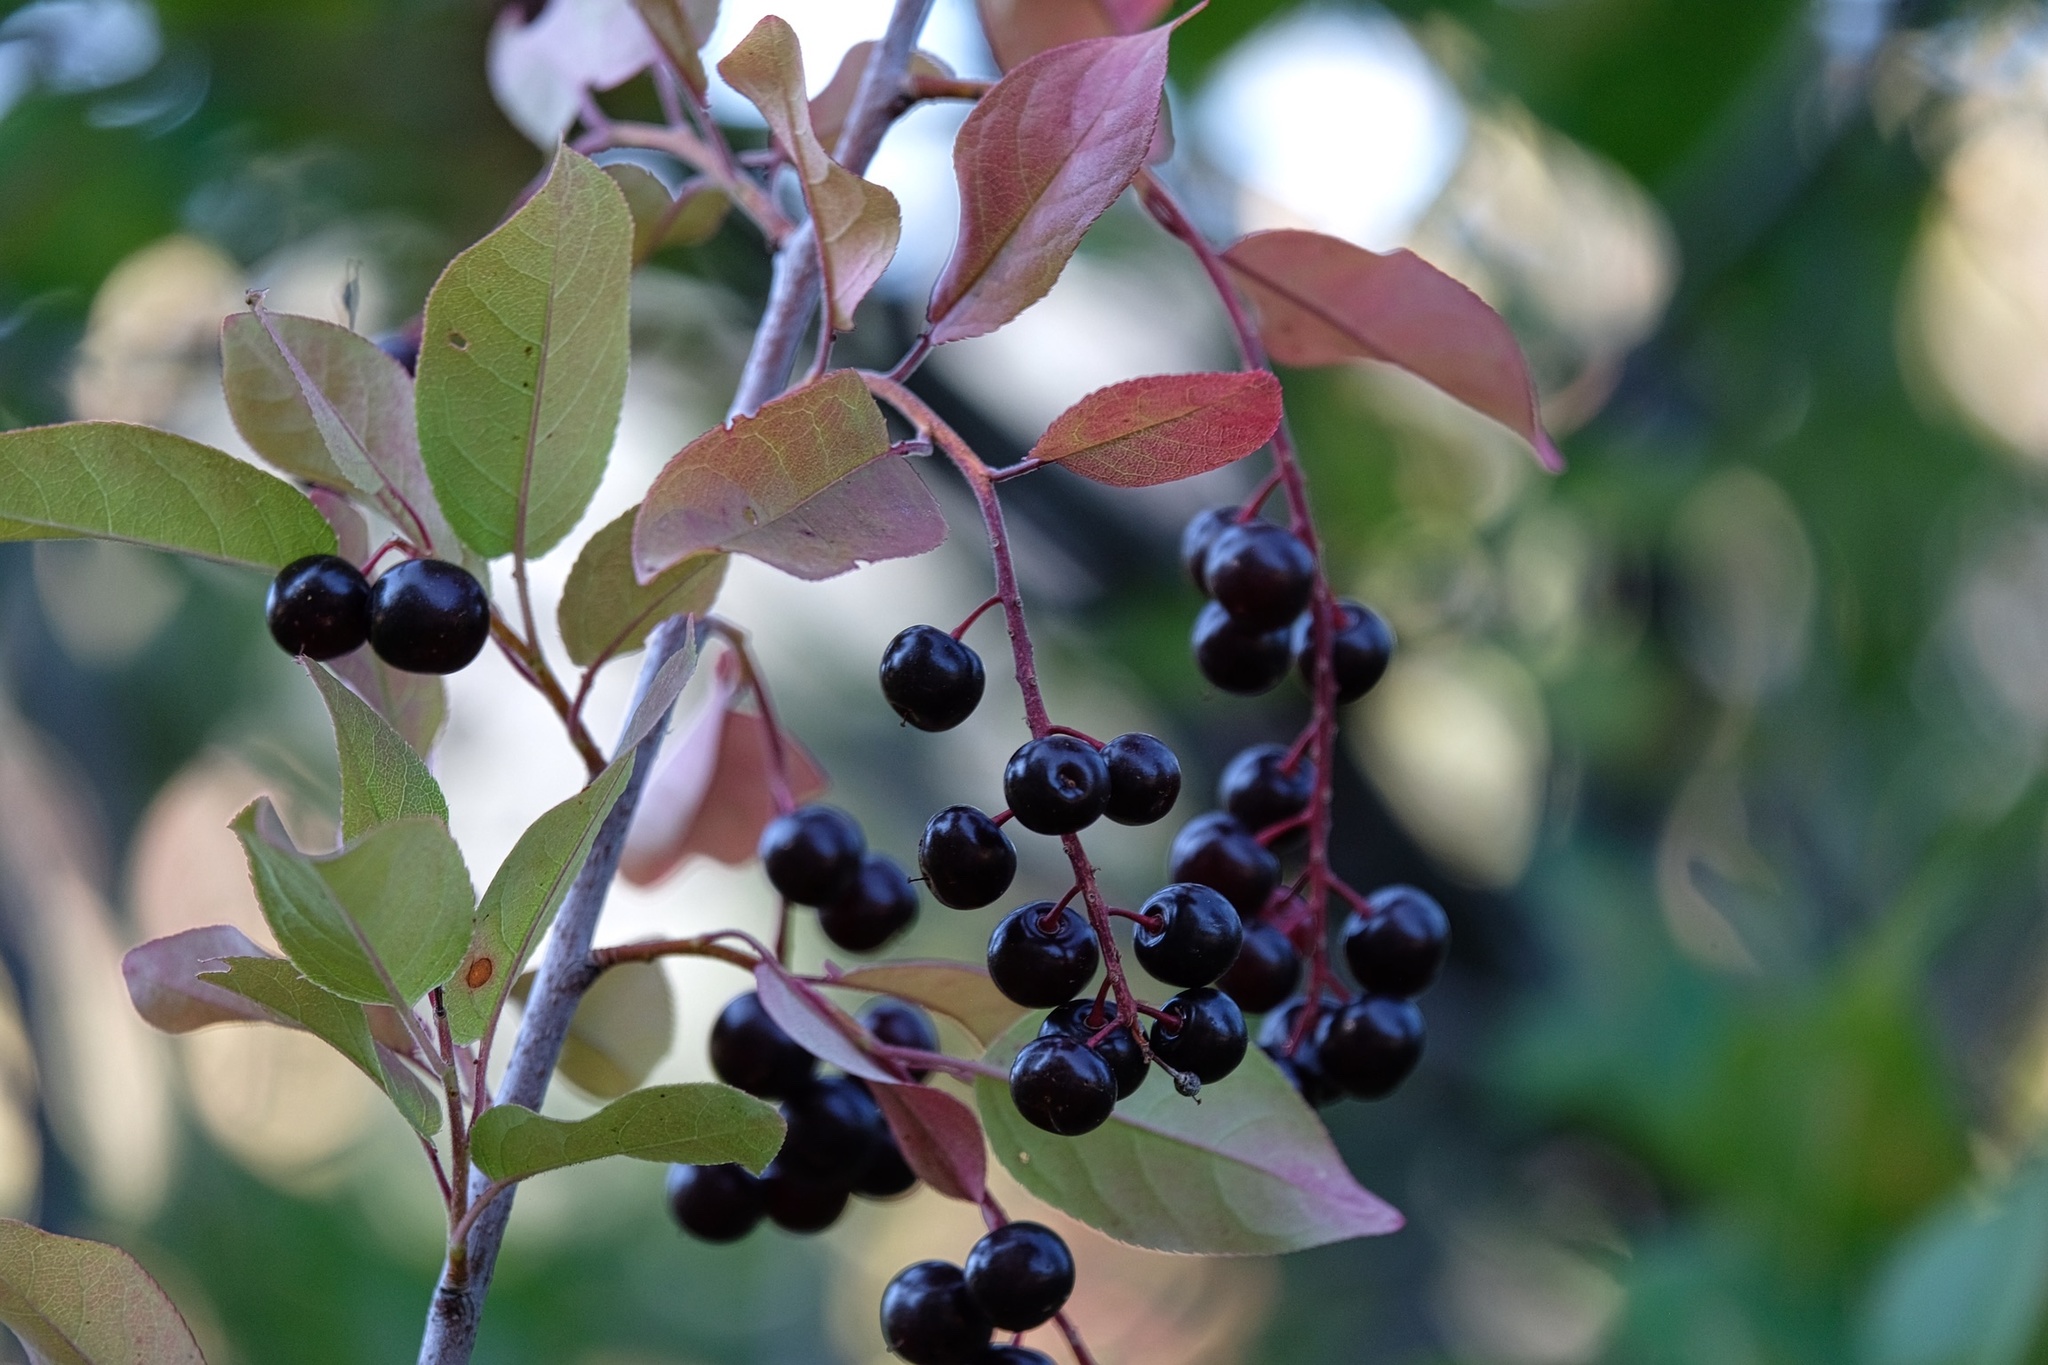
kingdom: Plantae
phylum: Tracheophyta
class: Magnoliopsida
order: Rosales
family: Rosaceae
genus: Prunus
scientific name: Prunus virginiana
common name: Chokecherry
